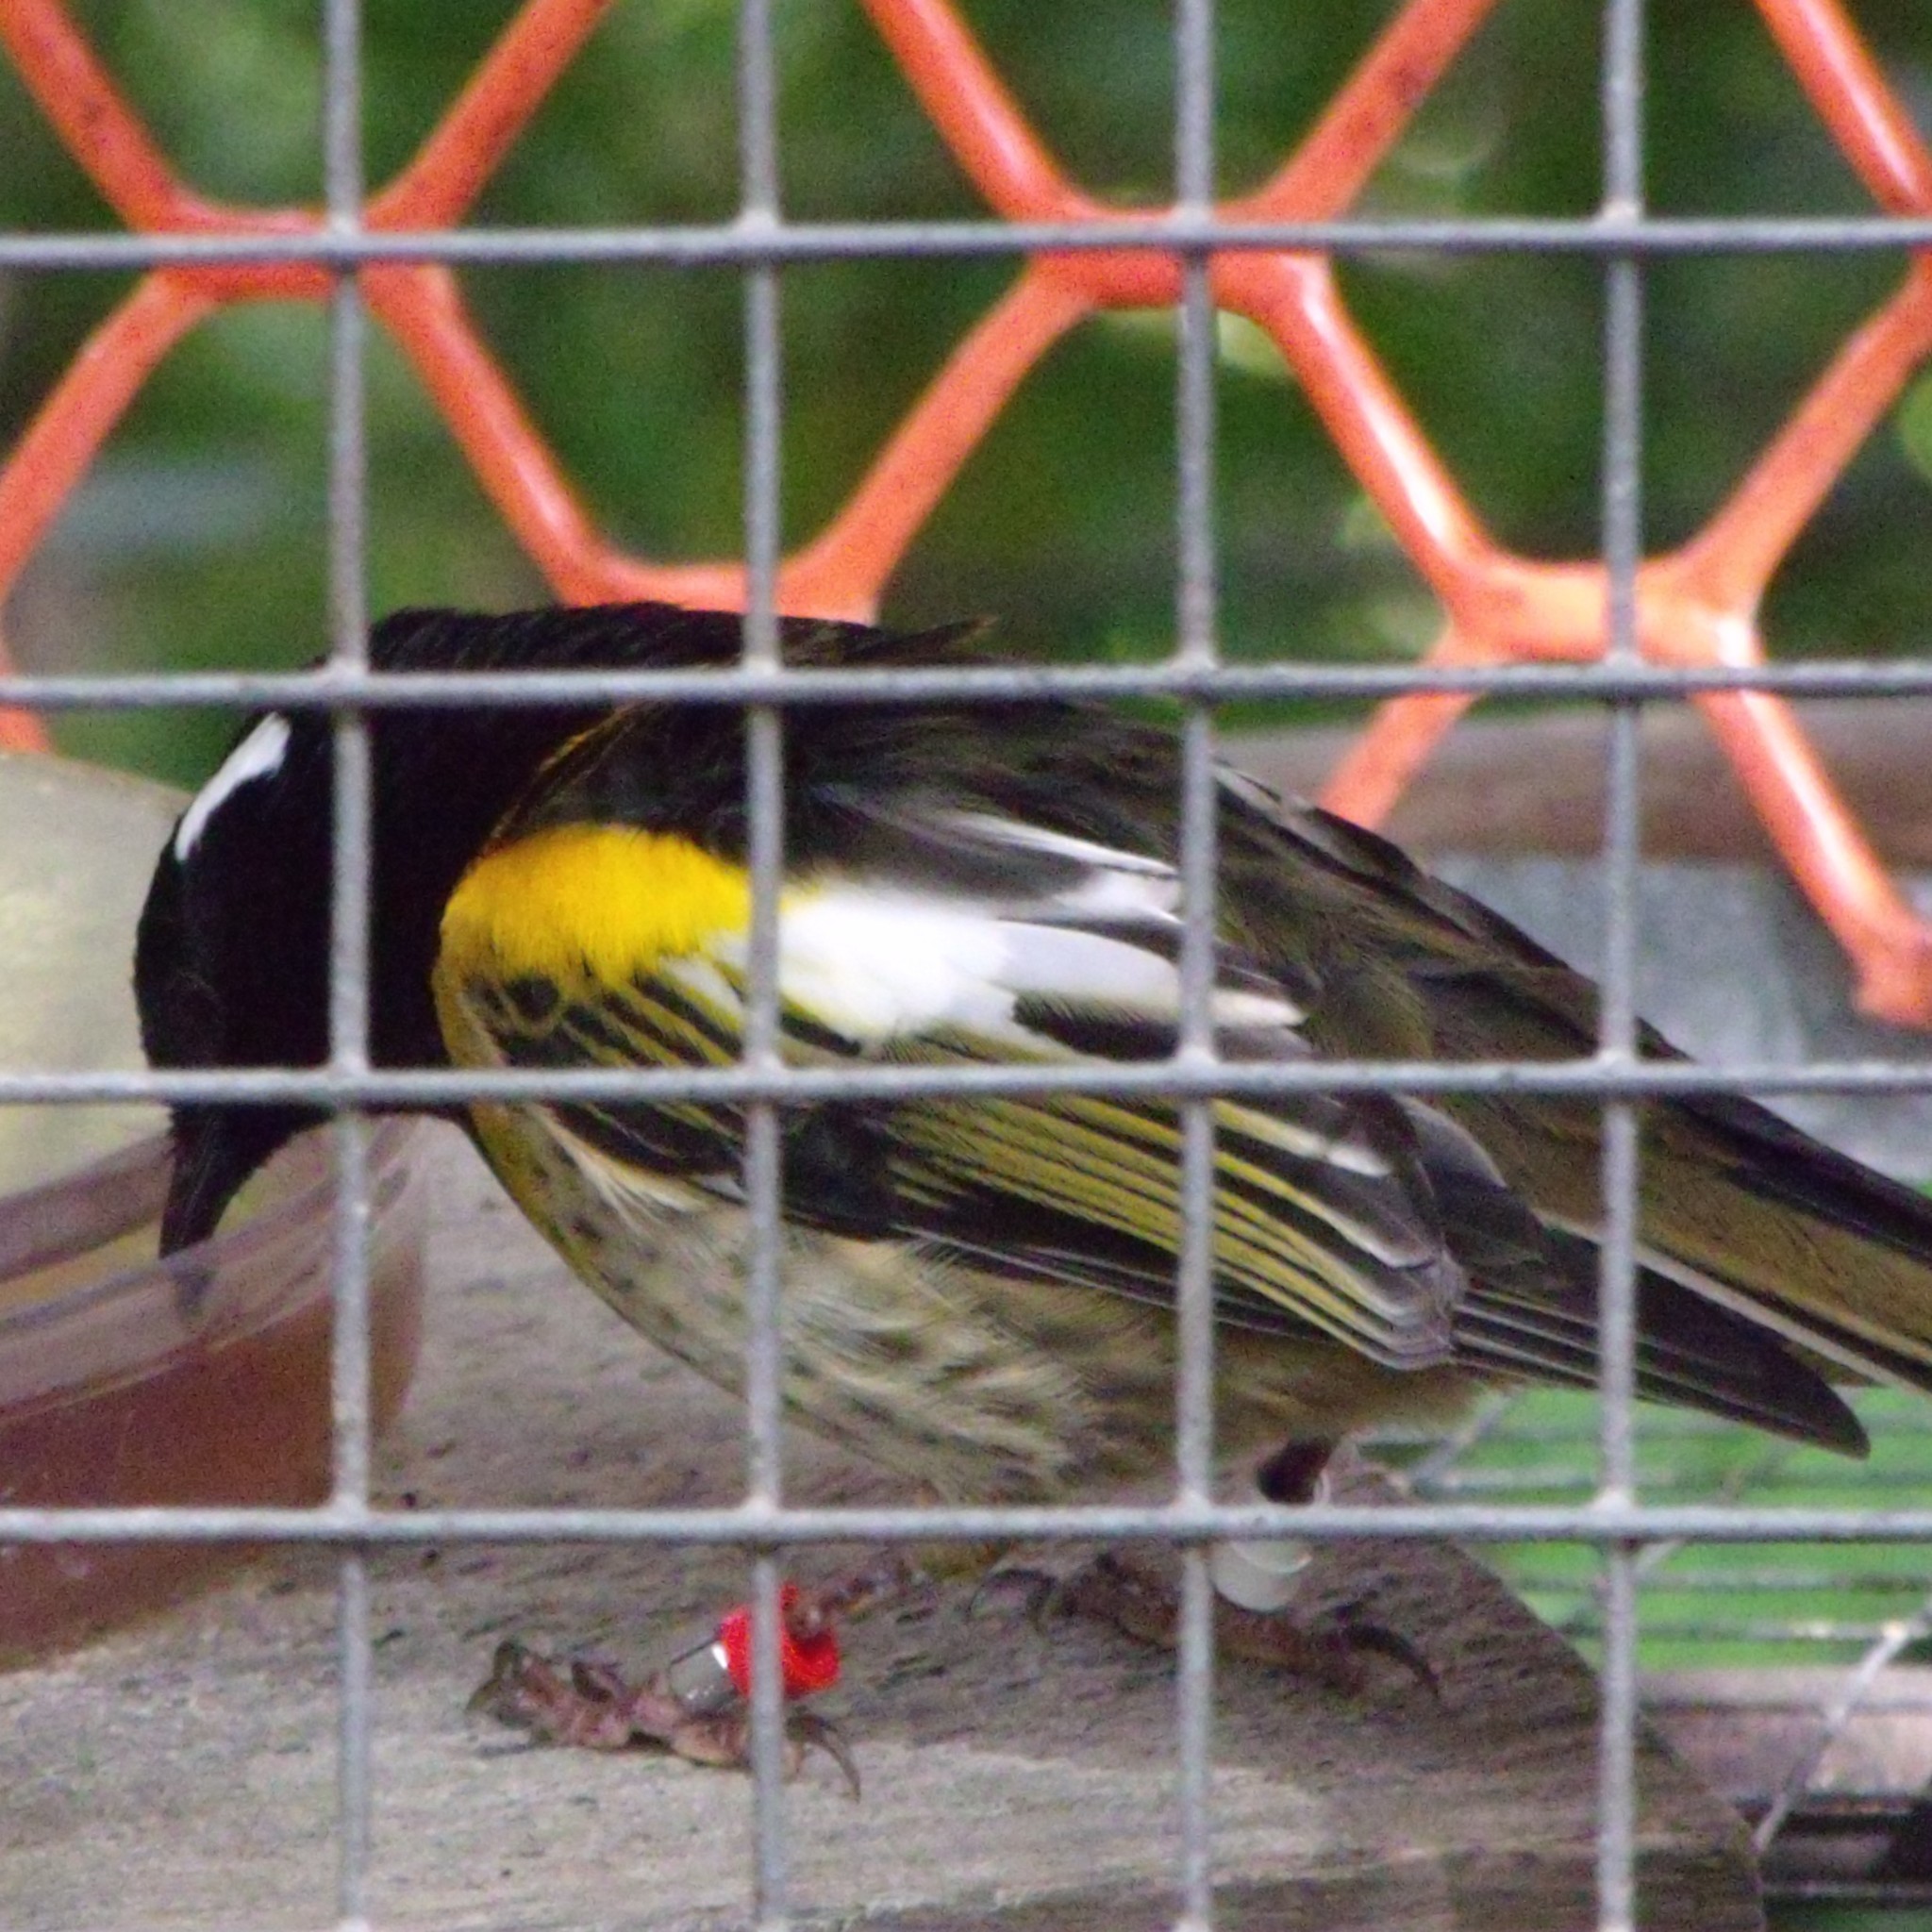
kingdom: Animalia
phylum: Chordata
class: Aves
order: Passeriformes
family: Notiomystidae
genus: Notiomystis
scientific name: Notiomystis cincta
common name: Stitchbird
